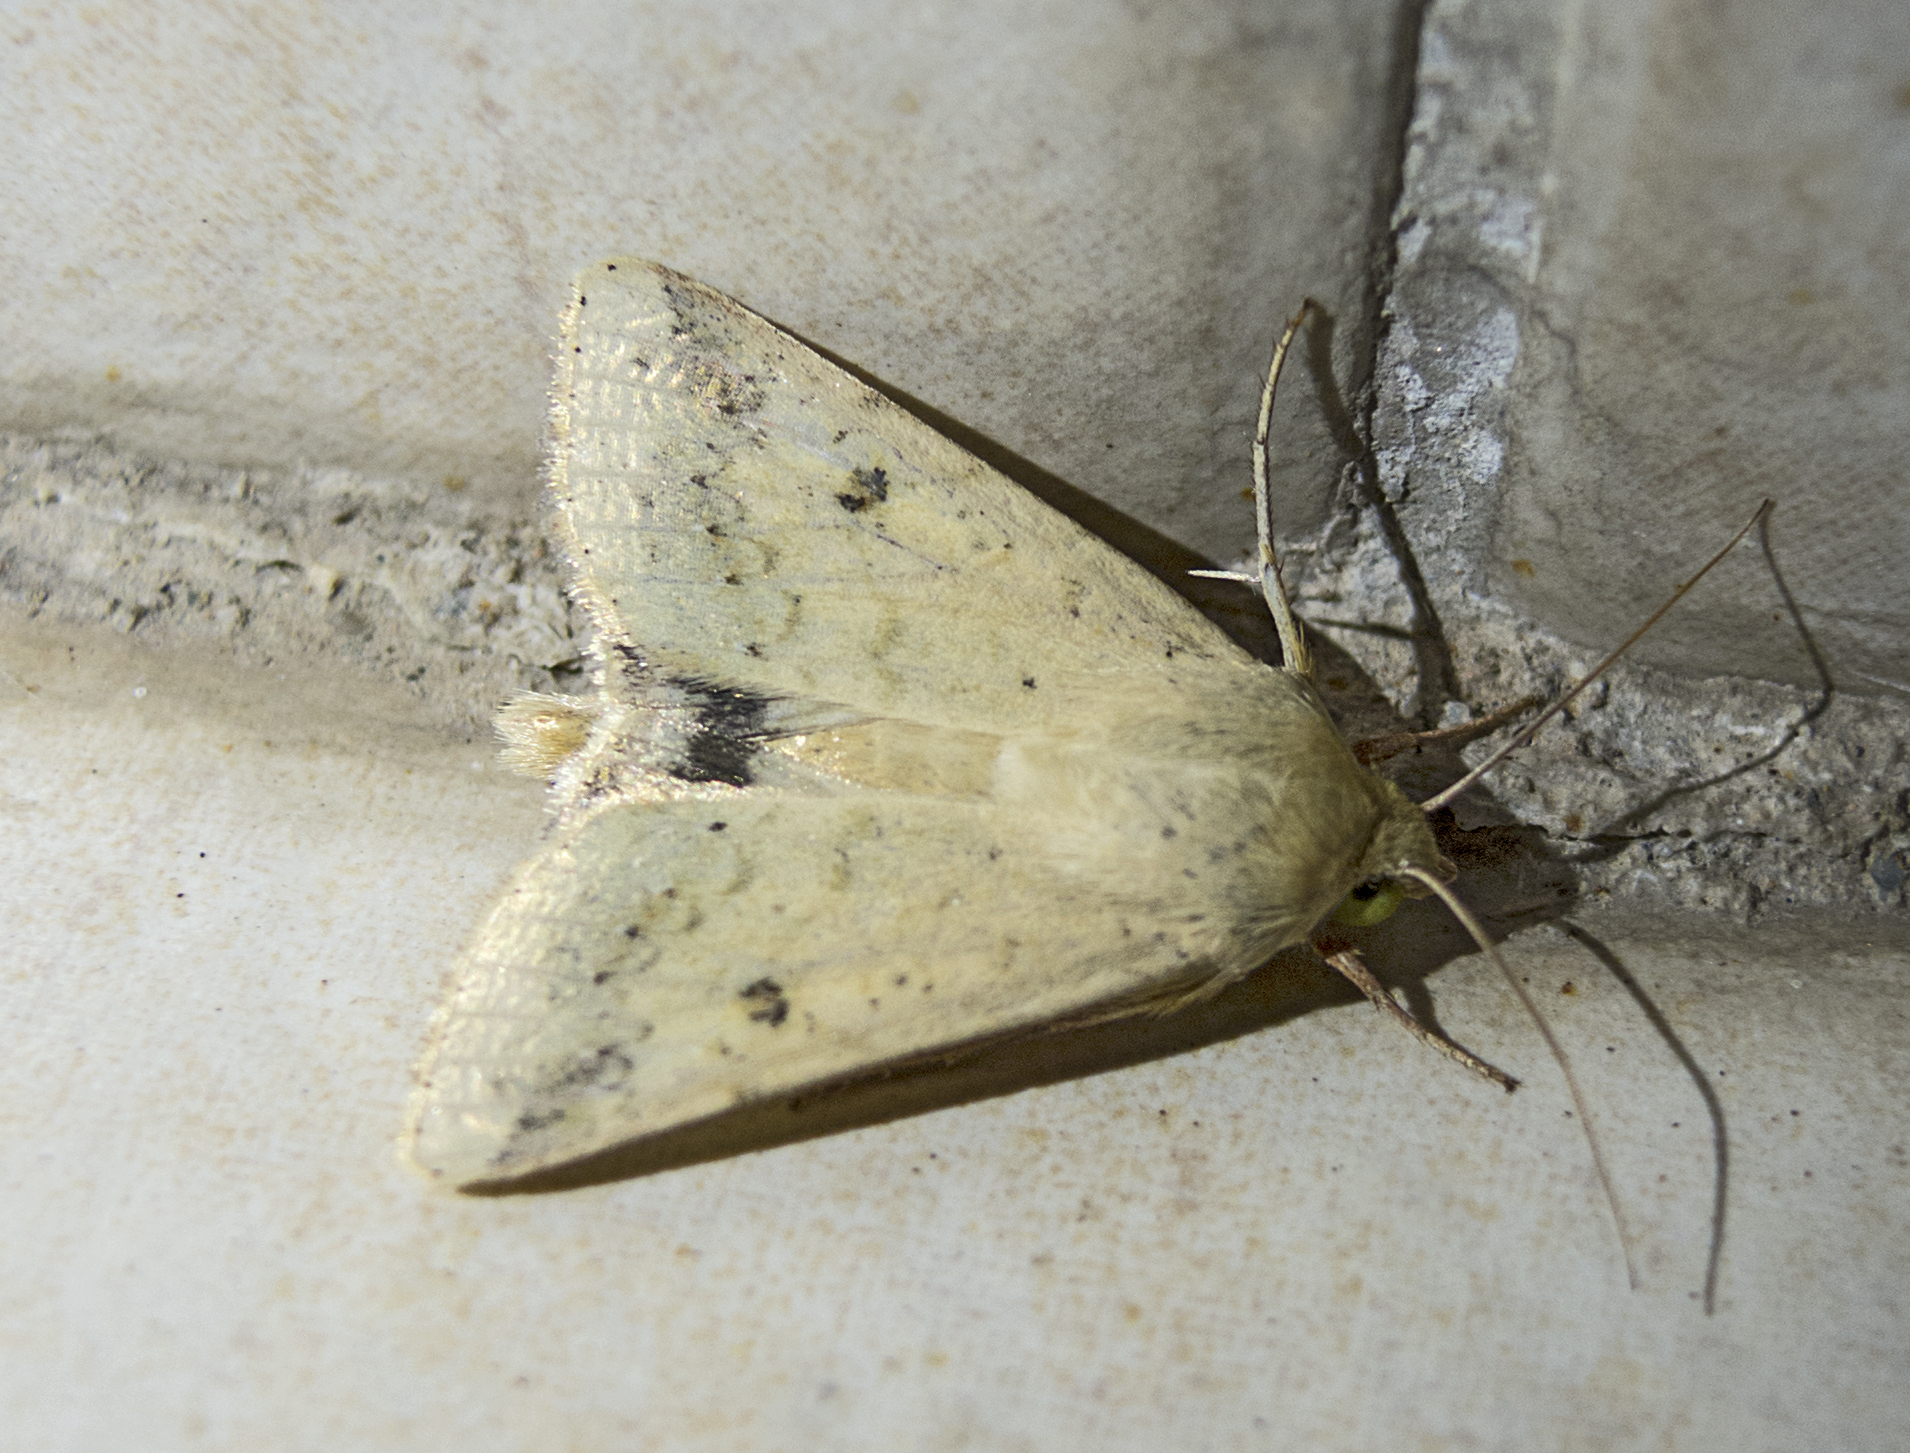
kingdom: Animalia
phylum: Arthropoda
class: Insecta
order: Lepidoptera
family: Noctuidae
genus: Helicoverpa
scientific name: Helicoverpa armigera
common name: Cotton bollworm
